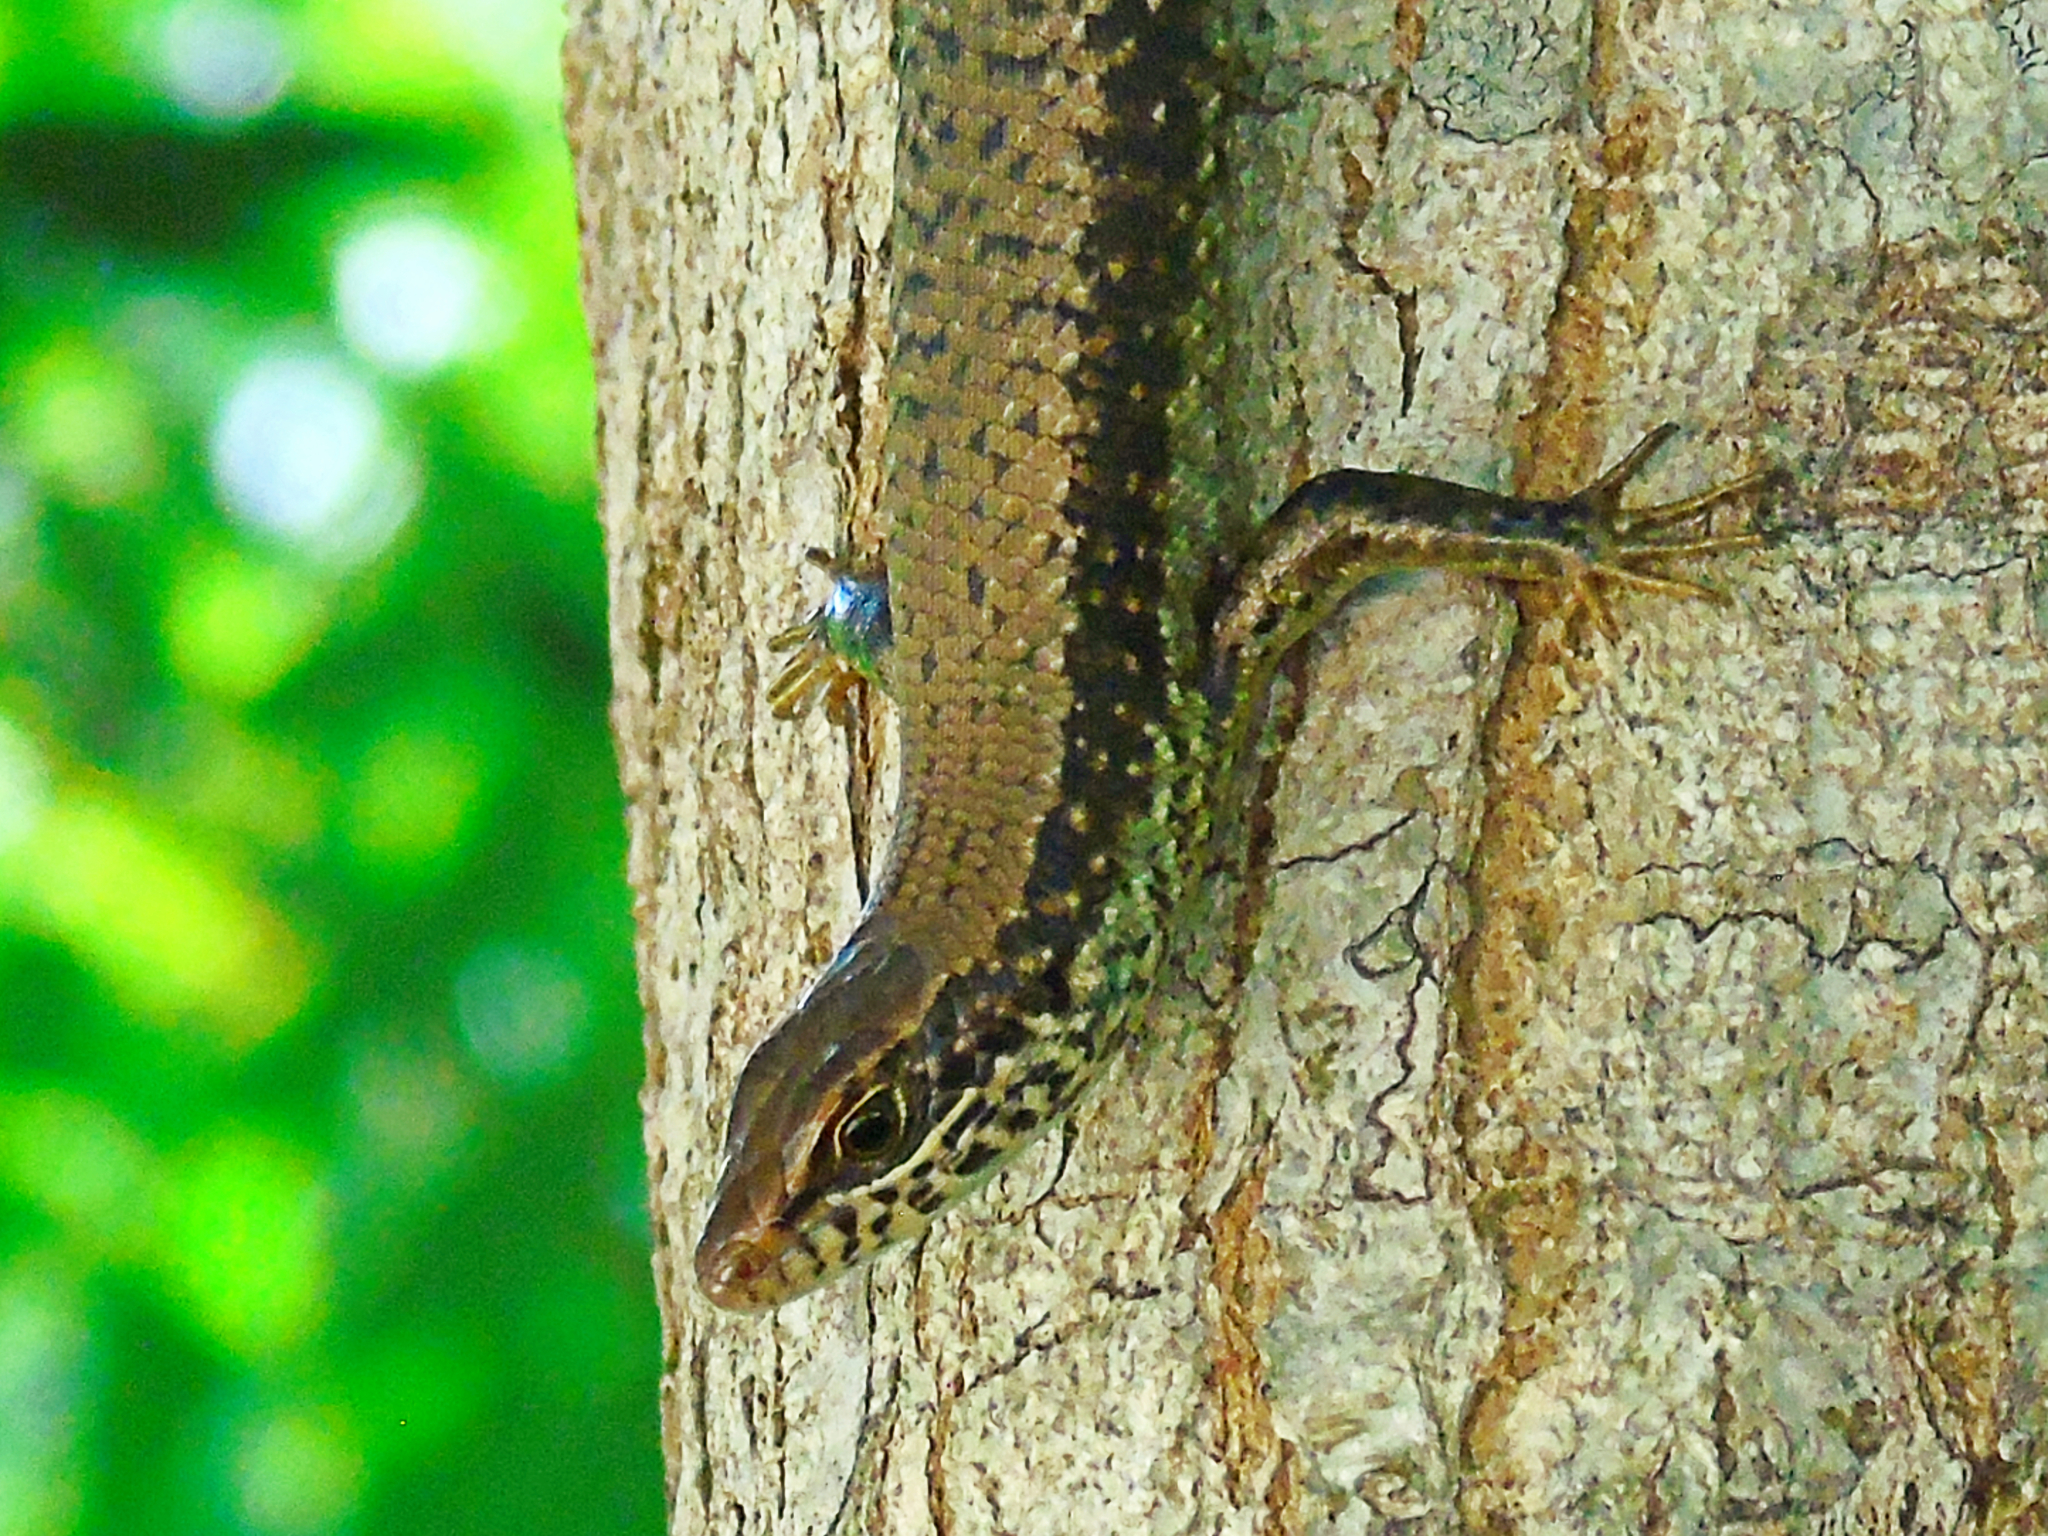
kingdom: Animalia
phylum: Chordata
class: Squamata
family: Scincidae
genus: Trachylepis
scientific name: Trachylepis maculilabris
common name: Speckle-lipped mabuya
